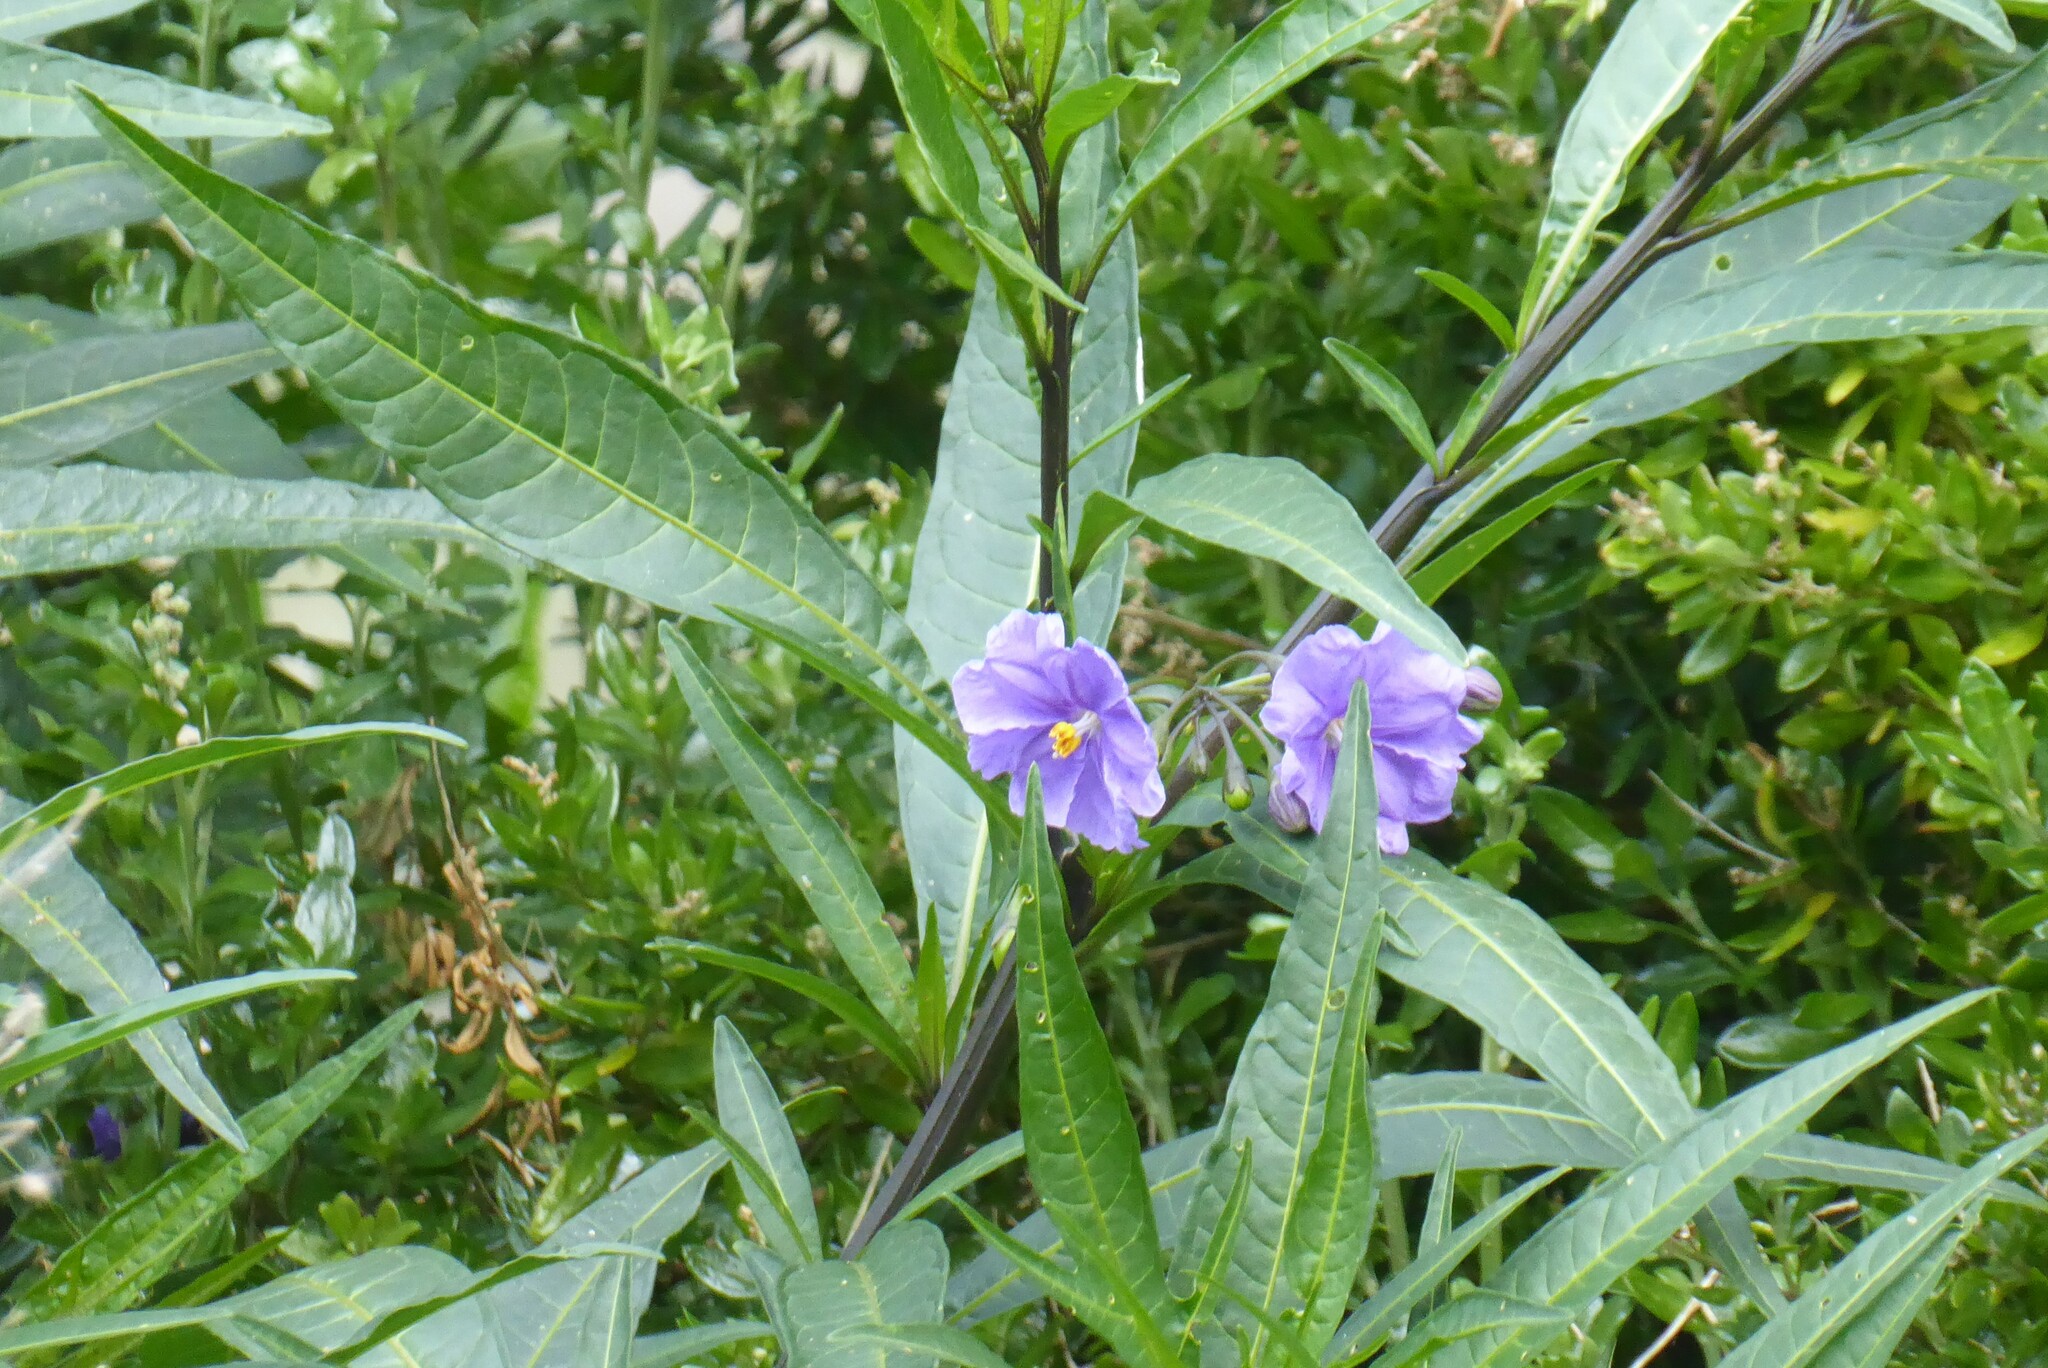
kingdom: Plantae
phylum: Tracheophyta
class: Magnoliopsida
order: Solanales
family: Solanaceae
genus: Solanum
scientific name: Solanum laciniatum
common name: Kangaroo-apple
